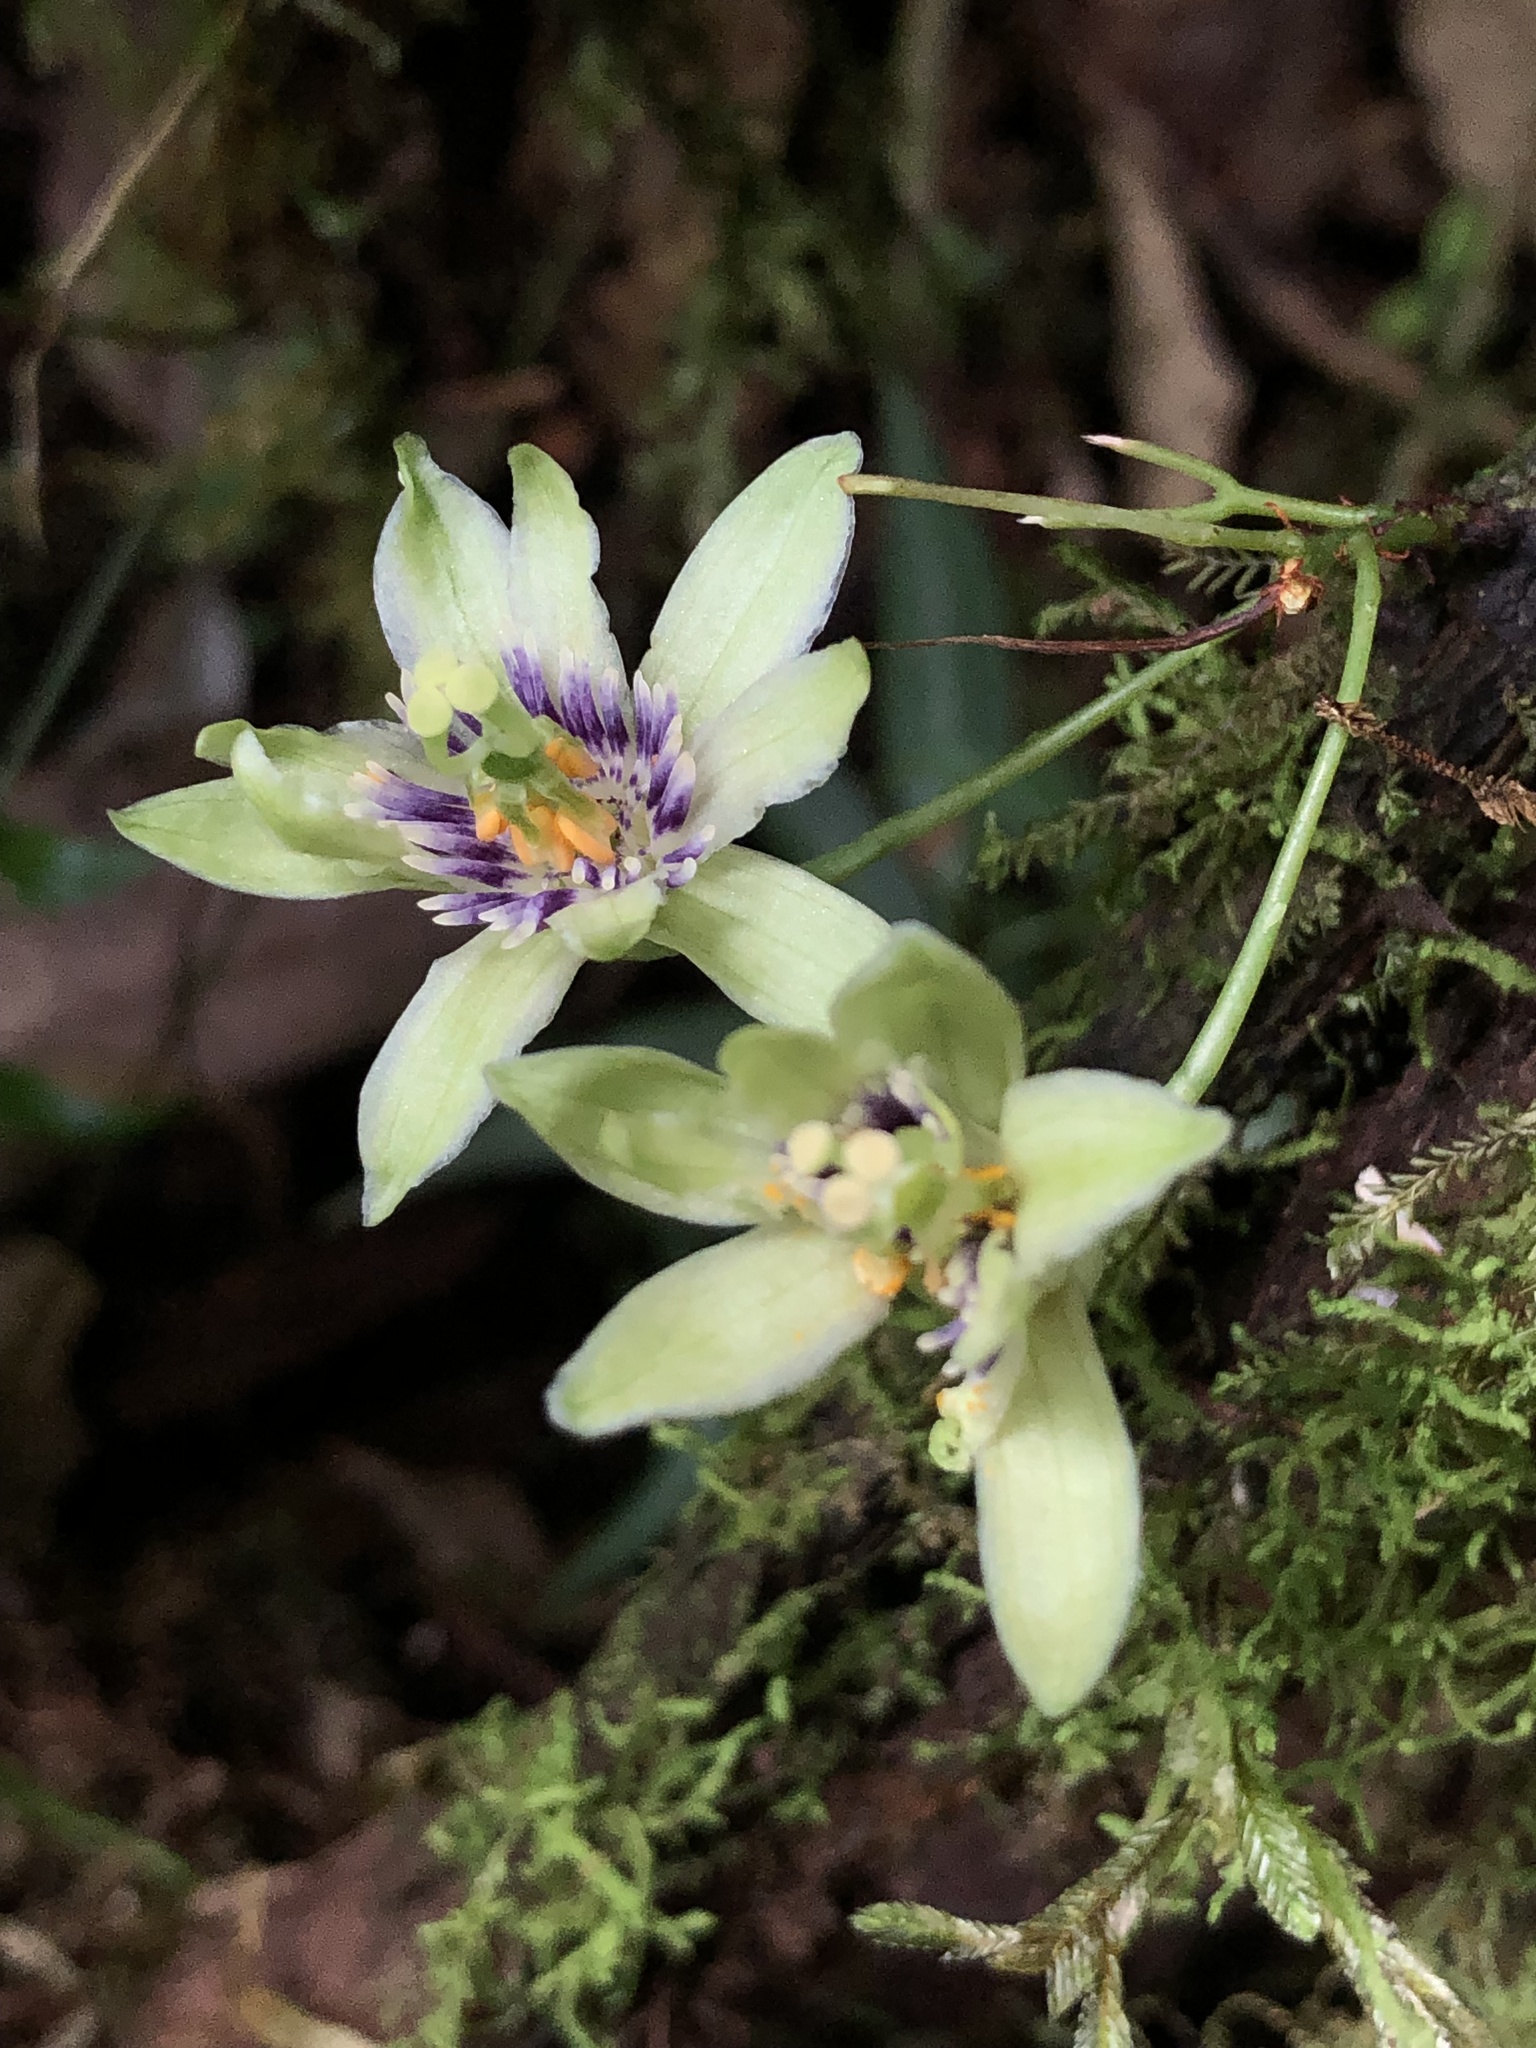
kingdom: Plantae
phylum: Tracheophyta
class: Magnoliopsida
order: Malpighiales
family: Passifloraceae
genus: Passiflora
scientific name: Passiflora nebulosae
